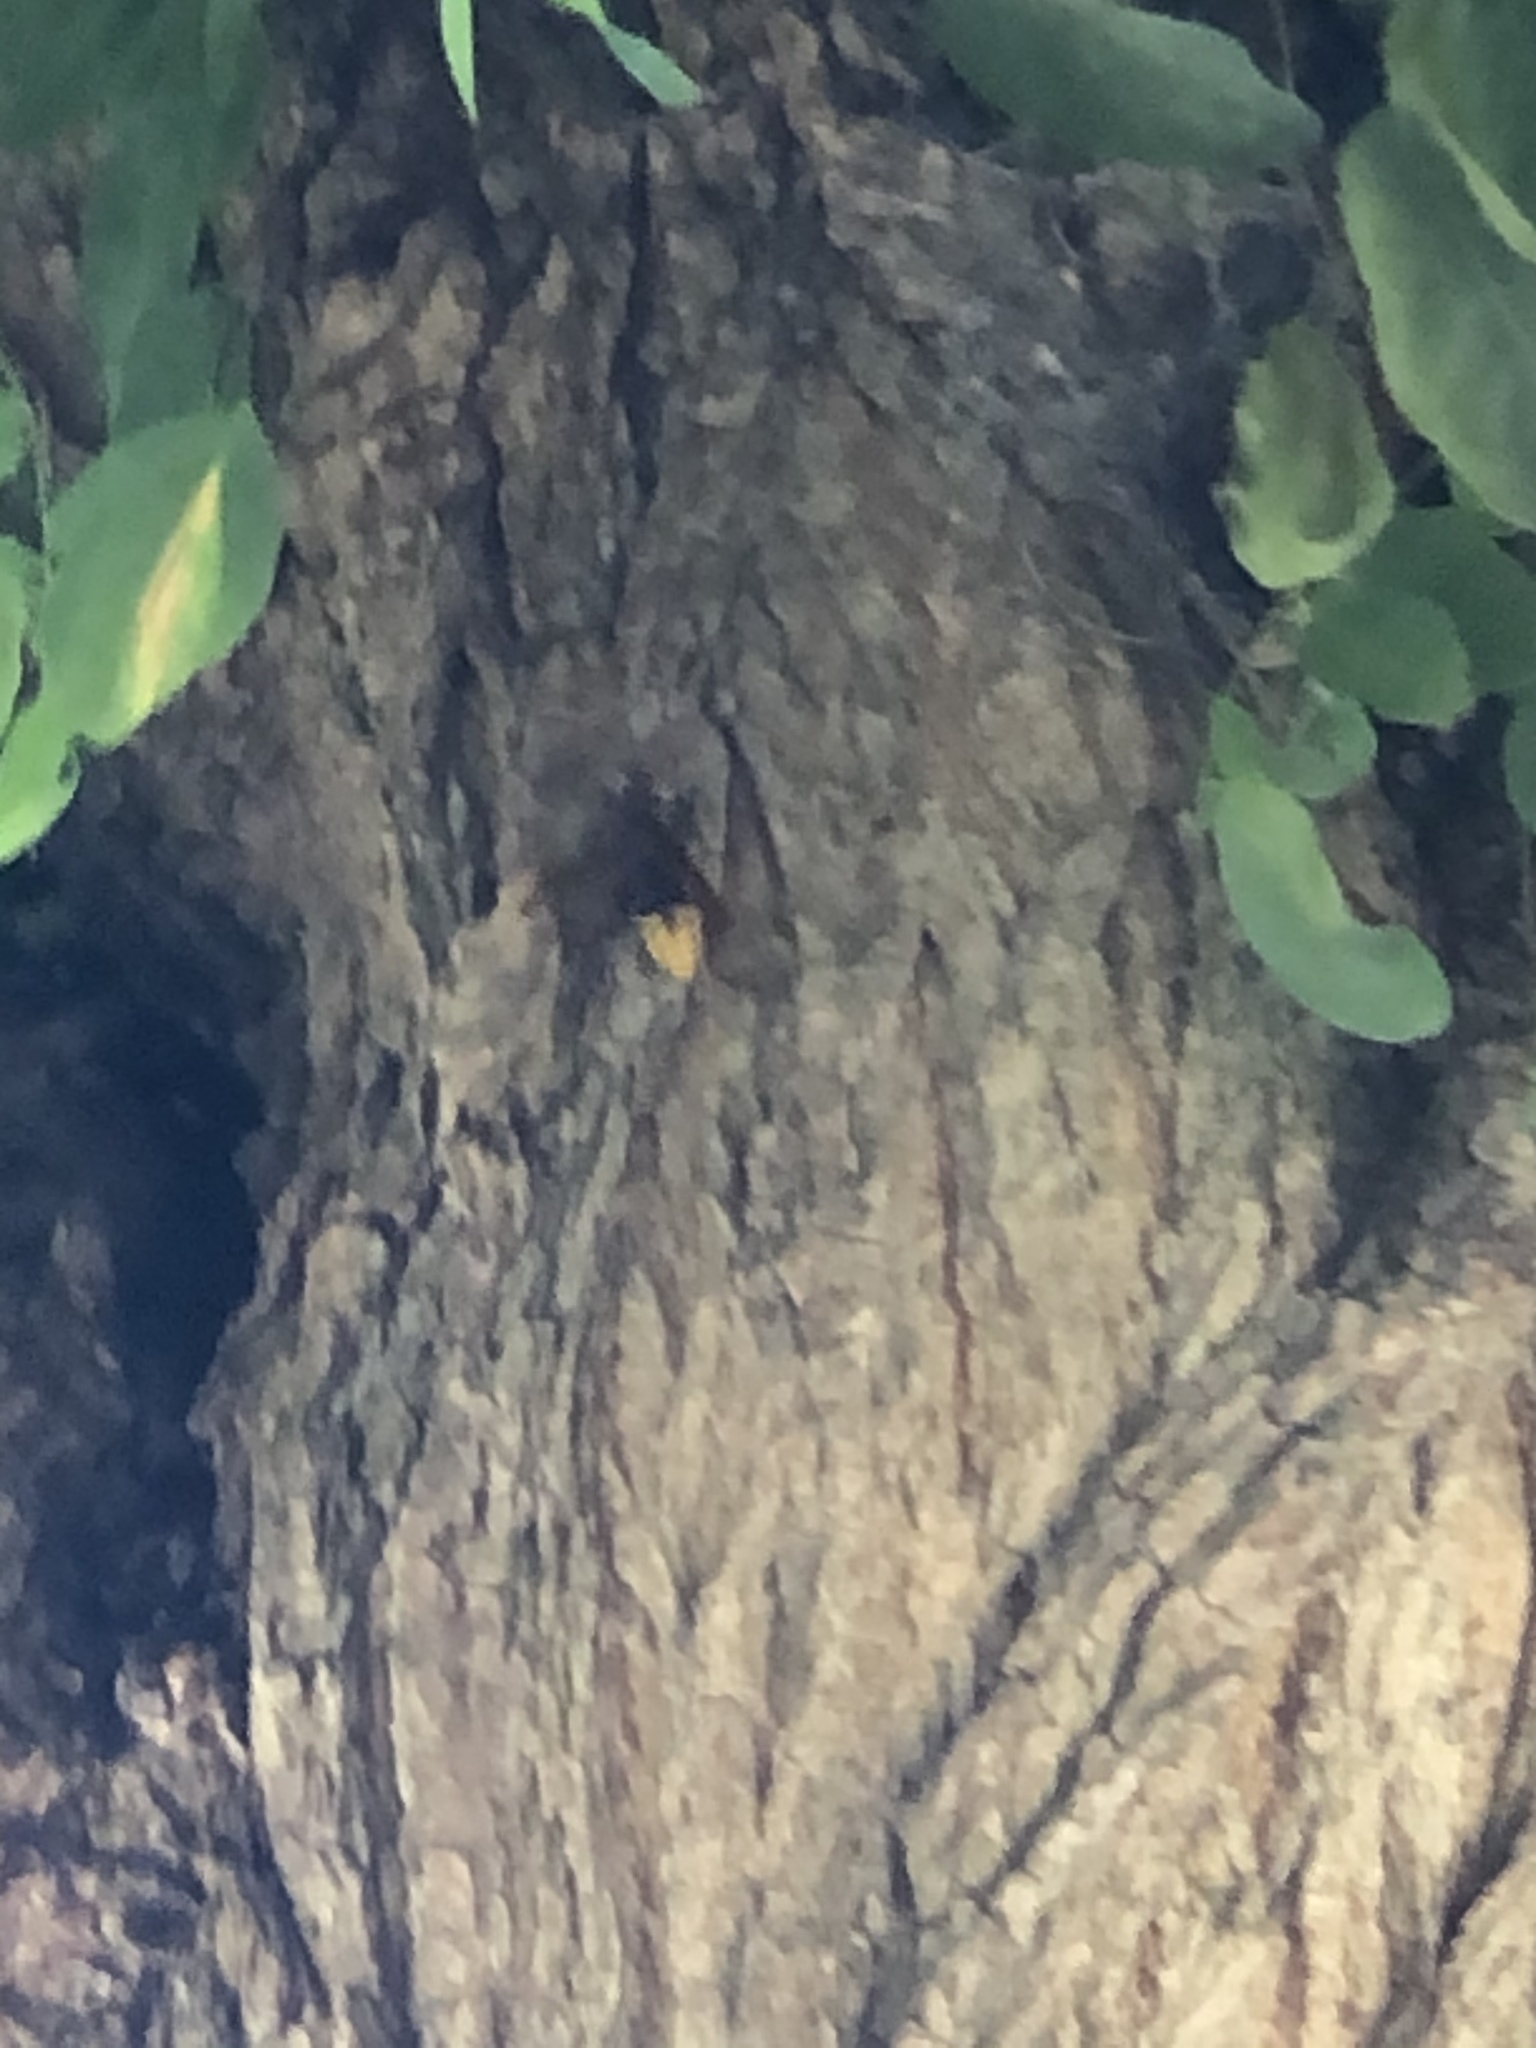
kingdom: Animalia
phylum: Arthropoda
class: Insecta
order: Hymenoptera
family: Vespidae
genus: Vespa
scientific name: Vespa crabro
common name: Hornet
